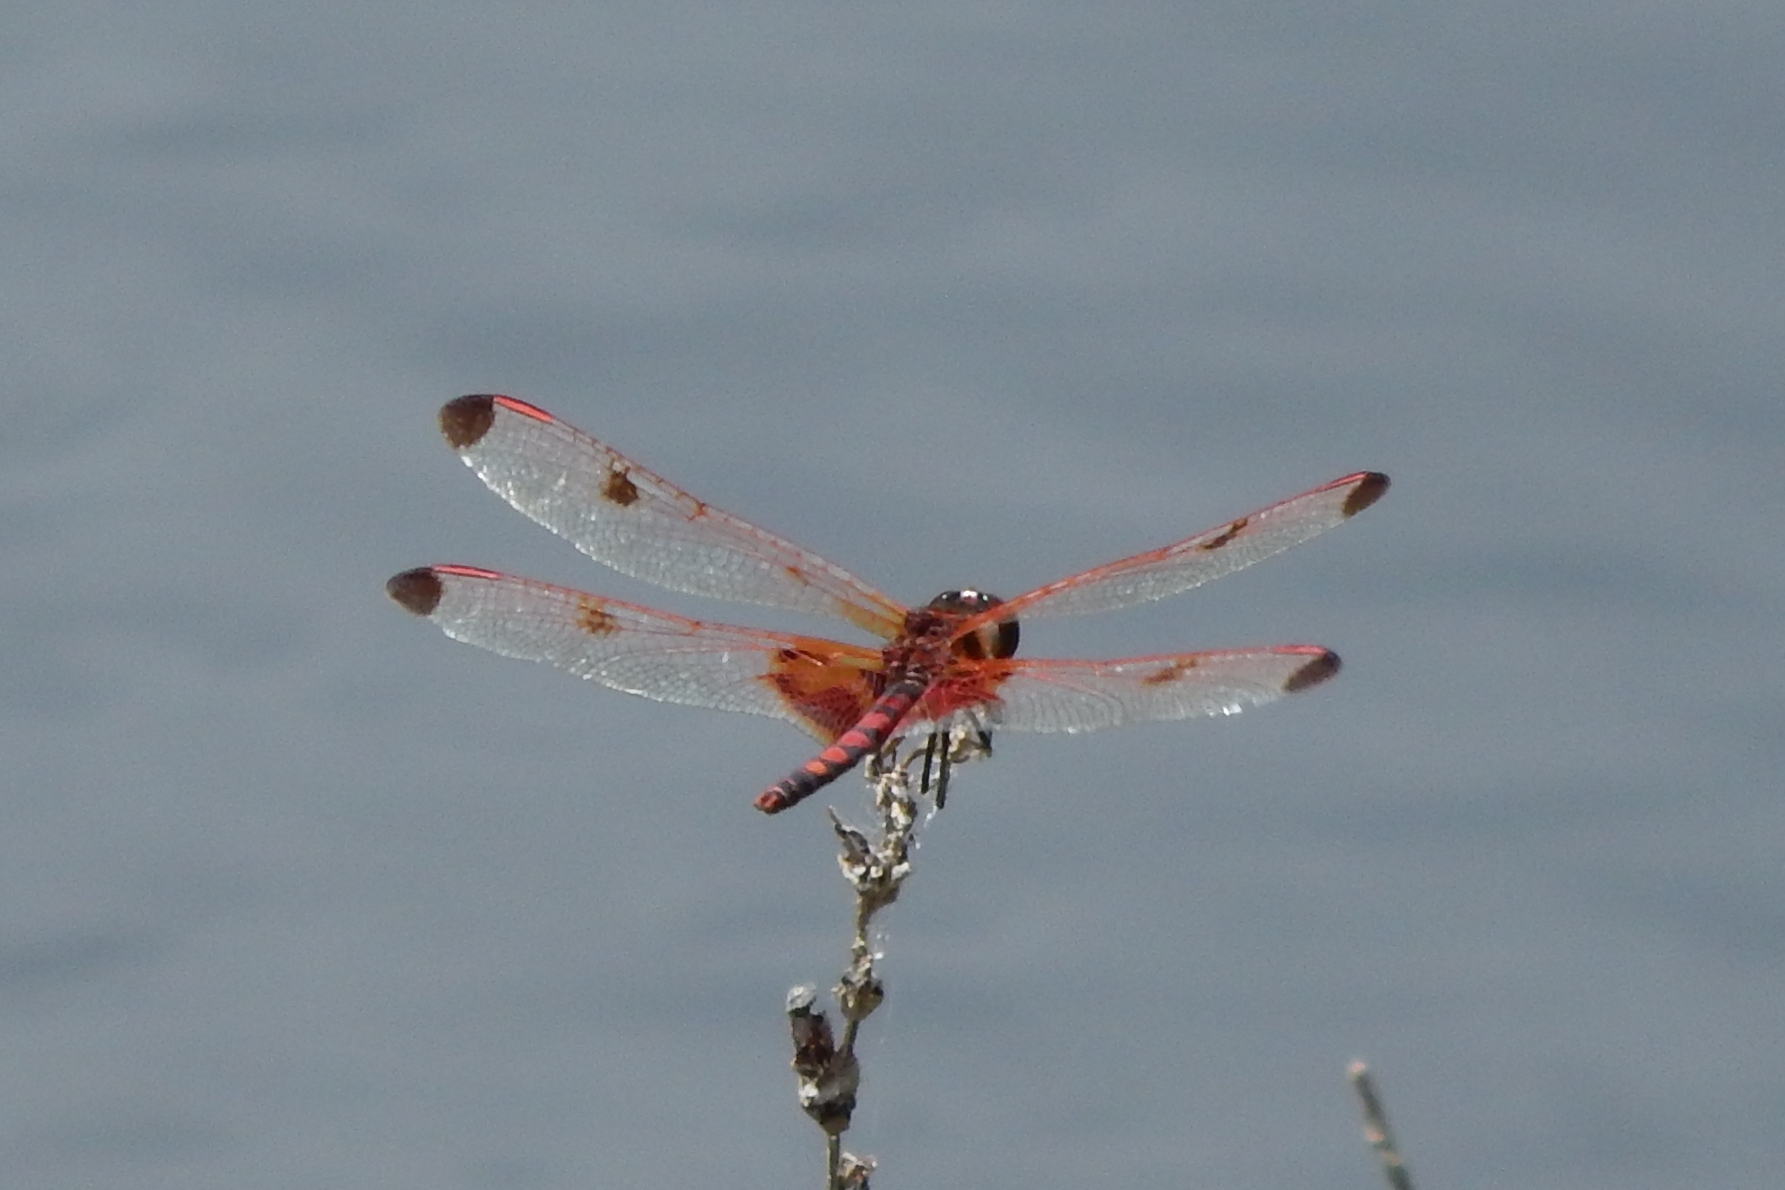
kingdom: Animalia
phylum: Arthropoda
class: Insecta
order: Odonata
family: Libellulidae
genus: Celithemis
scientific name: Celithemis elisa
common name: Calico pennant
